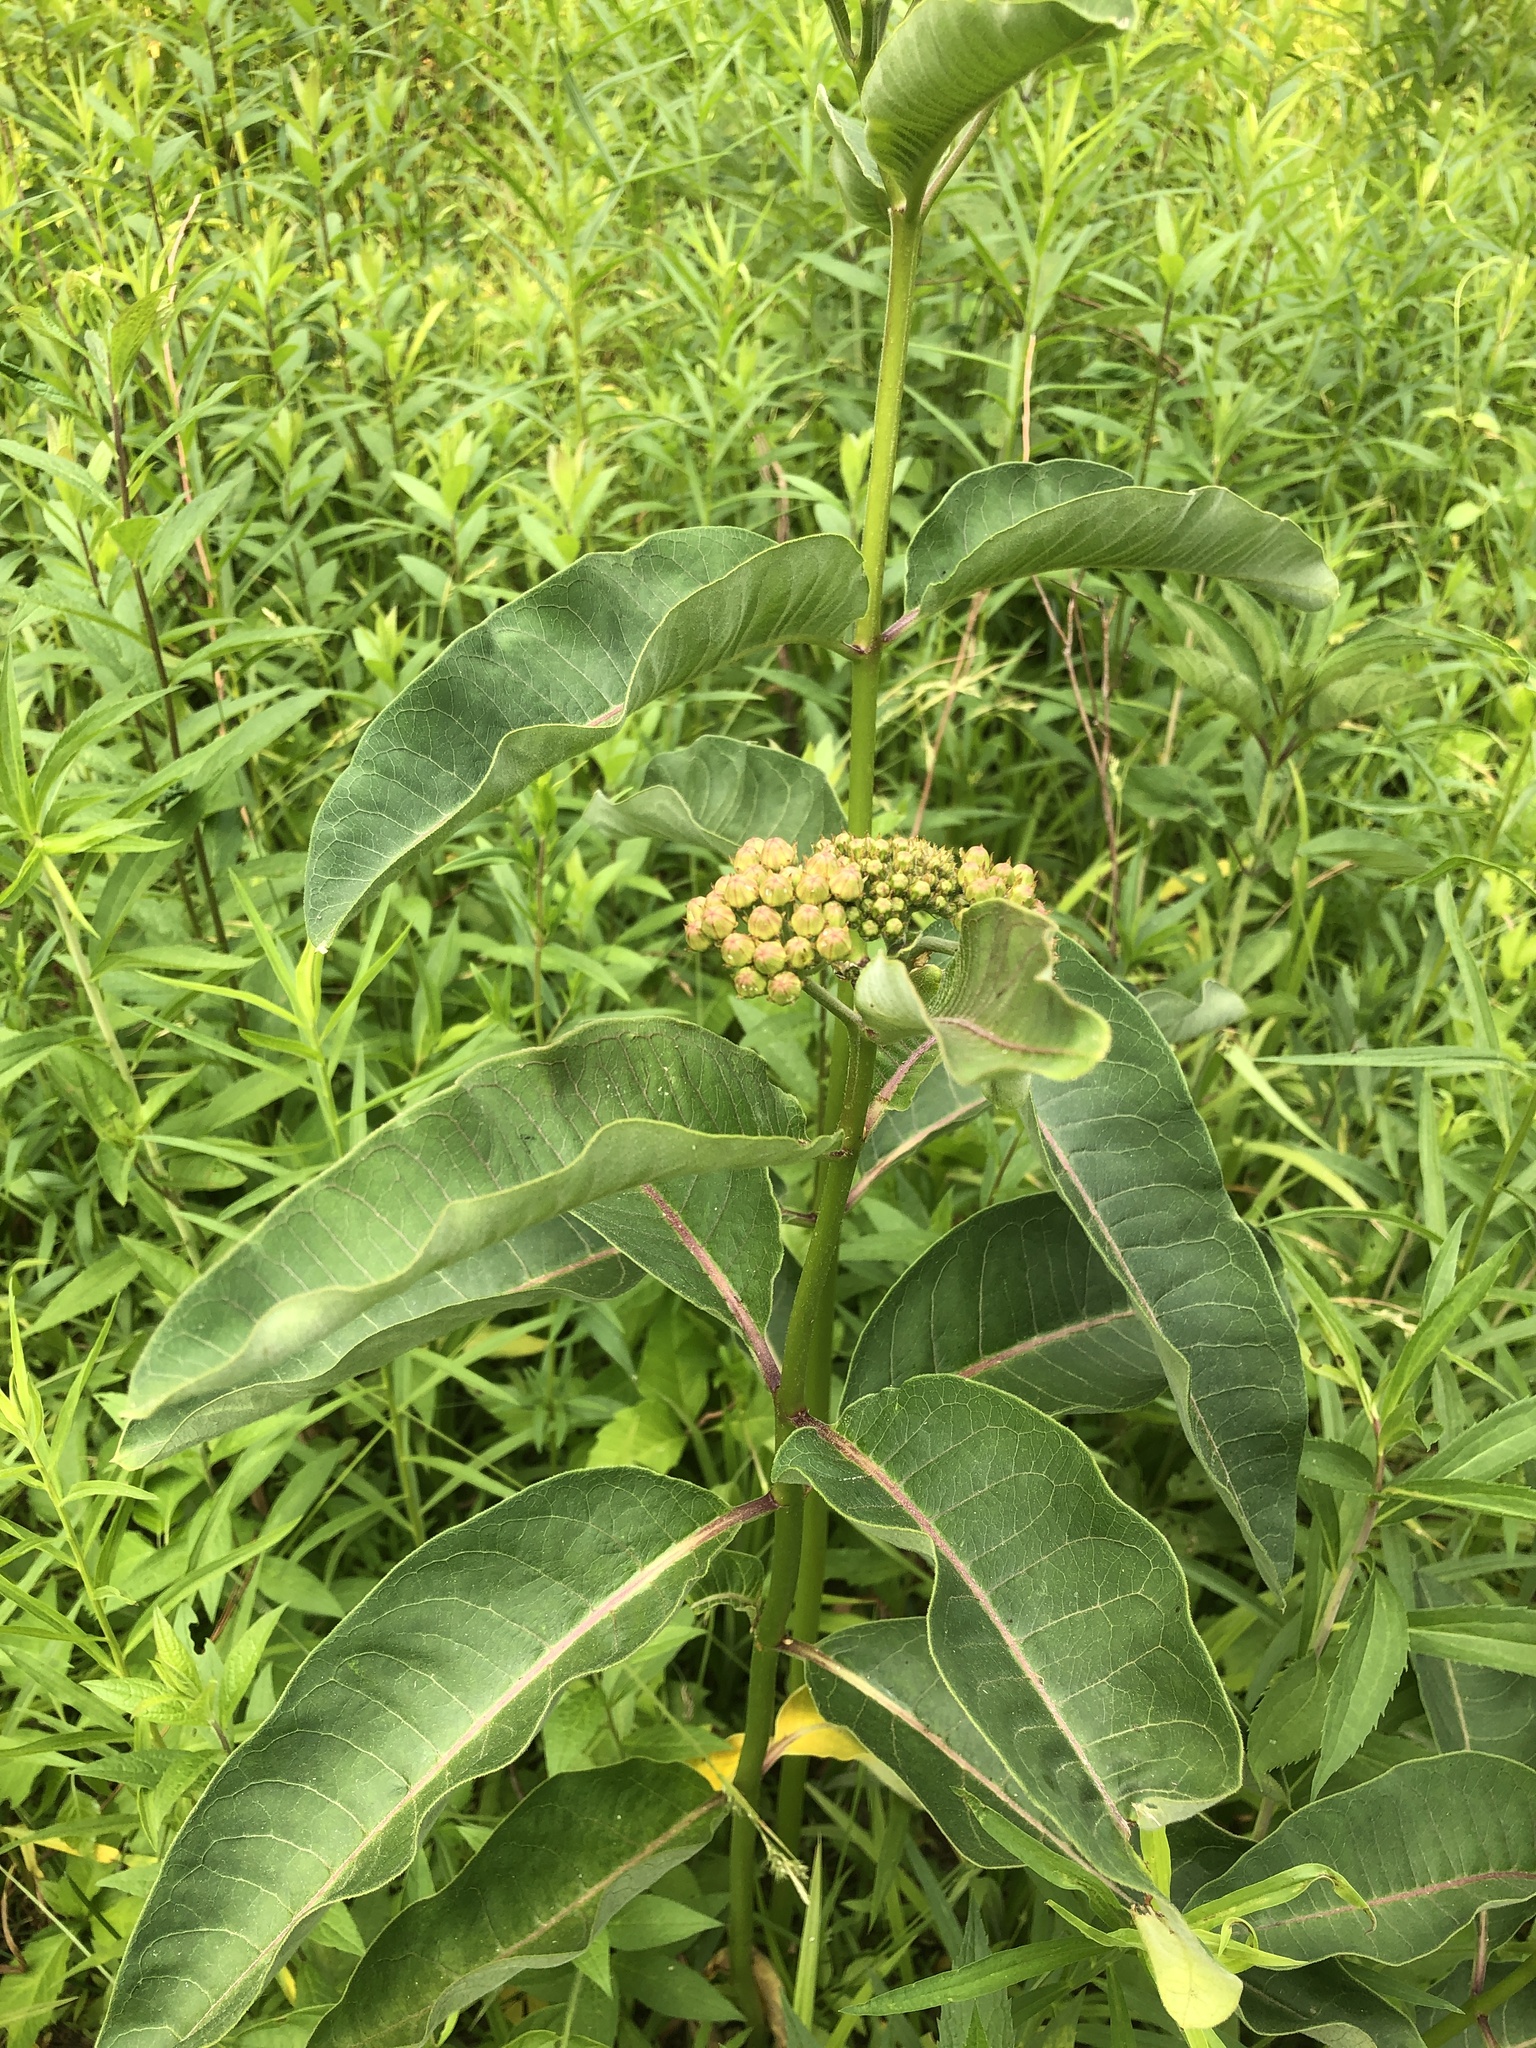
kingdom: Plantae
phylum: Tracheophyta
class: Magnoliopsida
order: Gentianales
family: Apocynaceae
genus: Asclepias
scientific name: Asclepias purpurascens
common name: Purple milkweed
